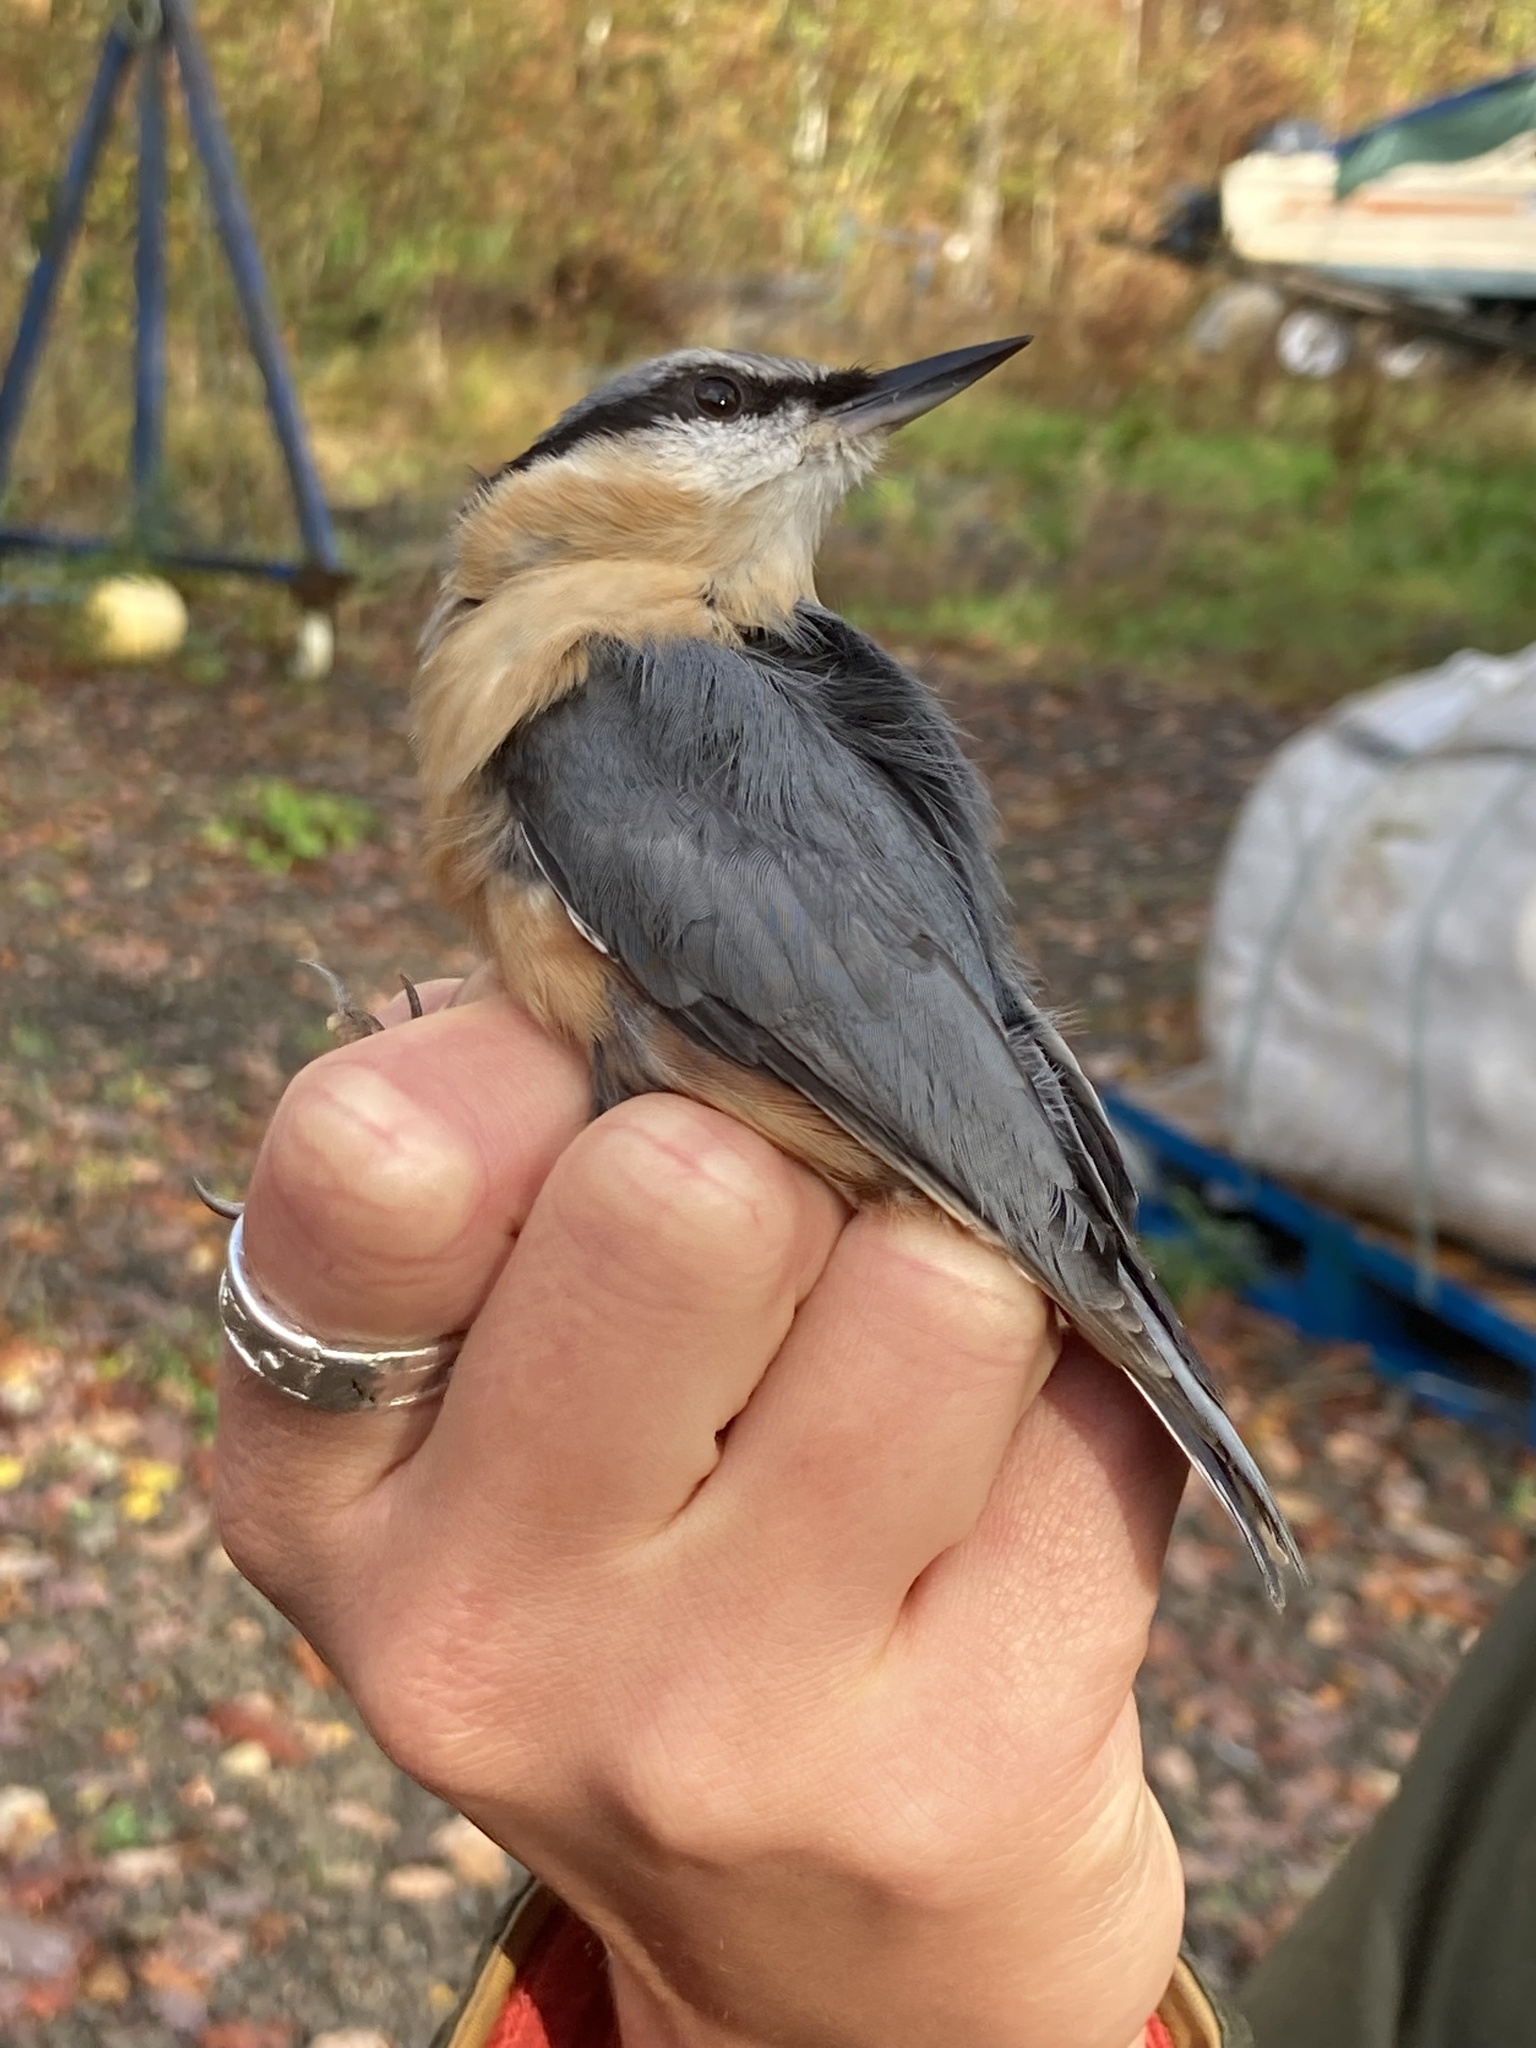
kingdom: Animalia
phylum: Chordata
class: Aves
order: Passeriformes
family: Sittidae
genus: Sitta
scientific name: Sitta europaea
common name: Eurasian nuthatch
